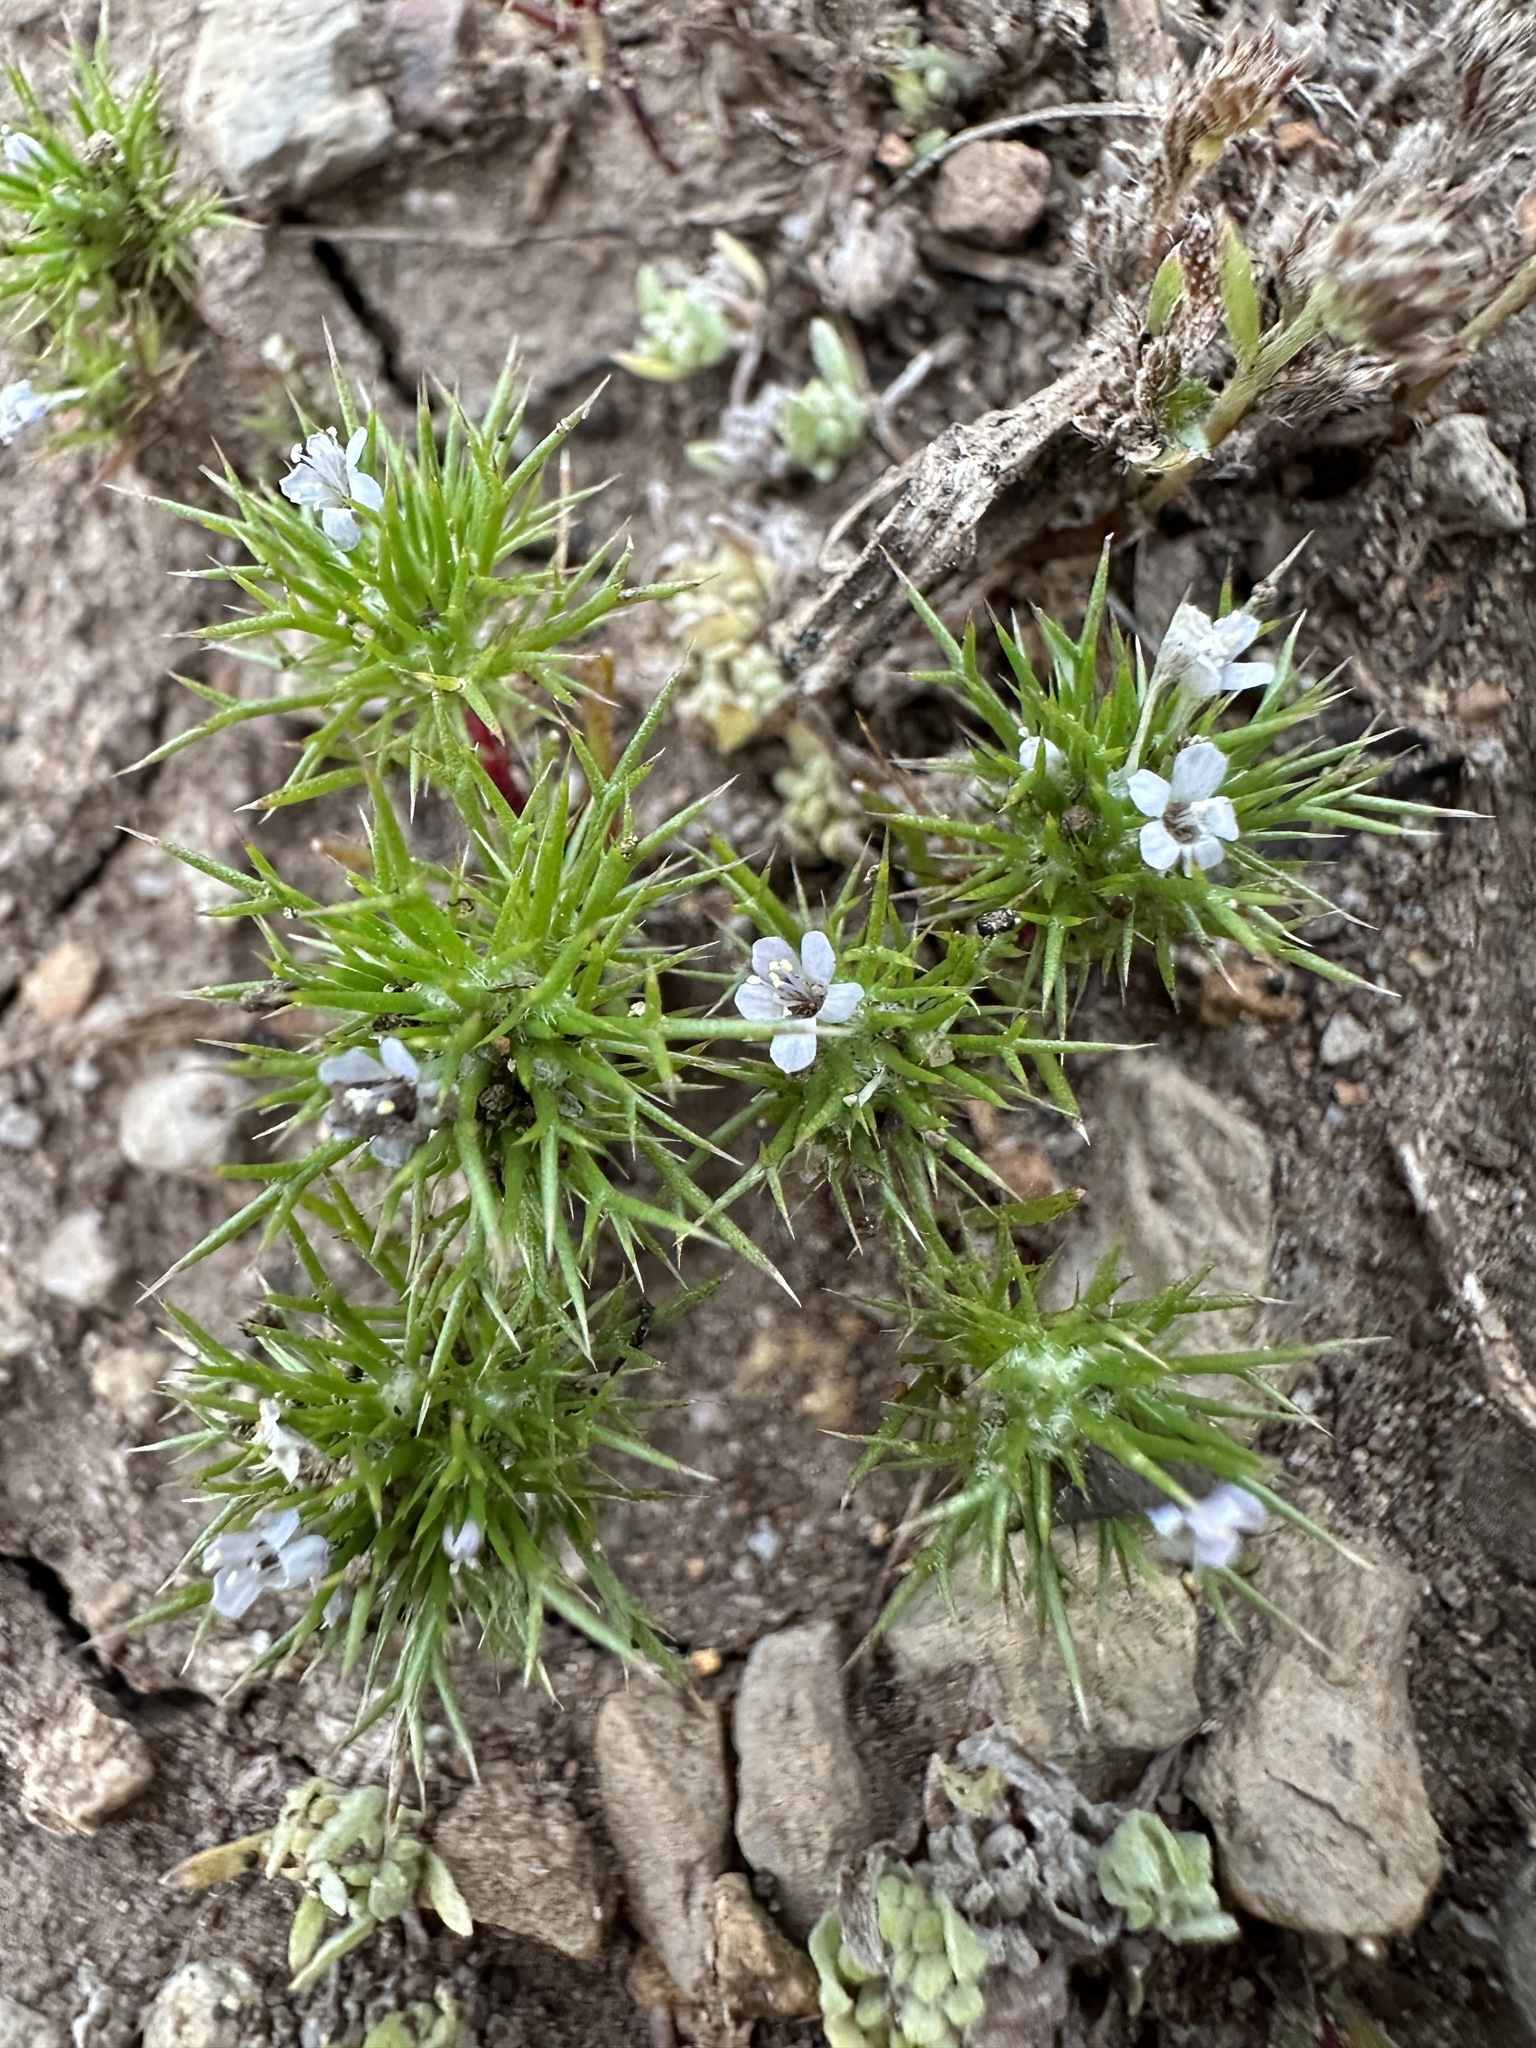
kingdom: Plantae
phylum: Tracheophyta
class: Magnoliopsida
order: Ericales
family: Polemoniaceae
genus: Navarretia
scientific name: Navarretia intertexta
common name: Needle-leaved navarretia
